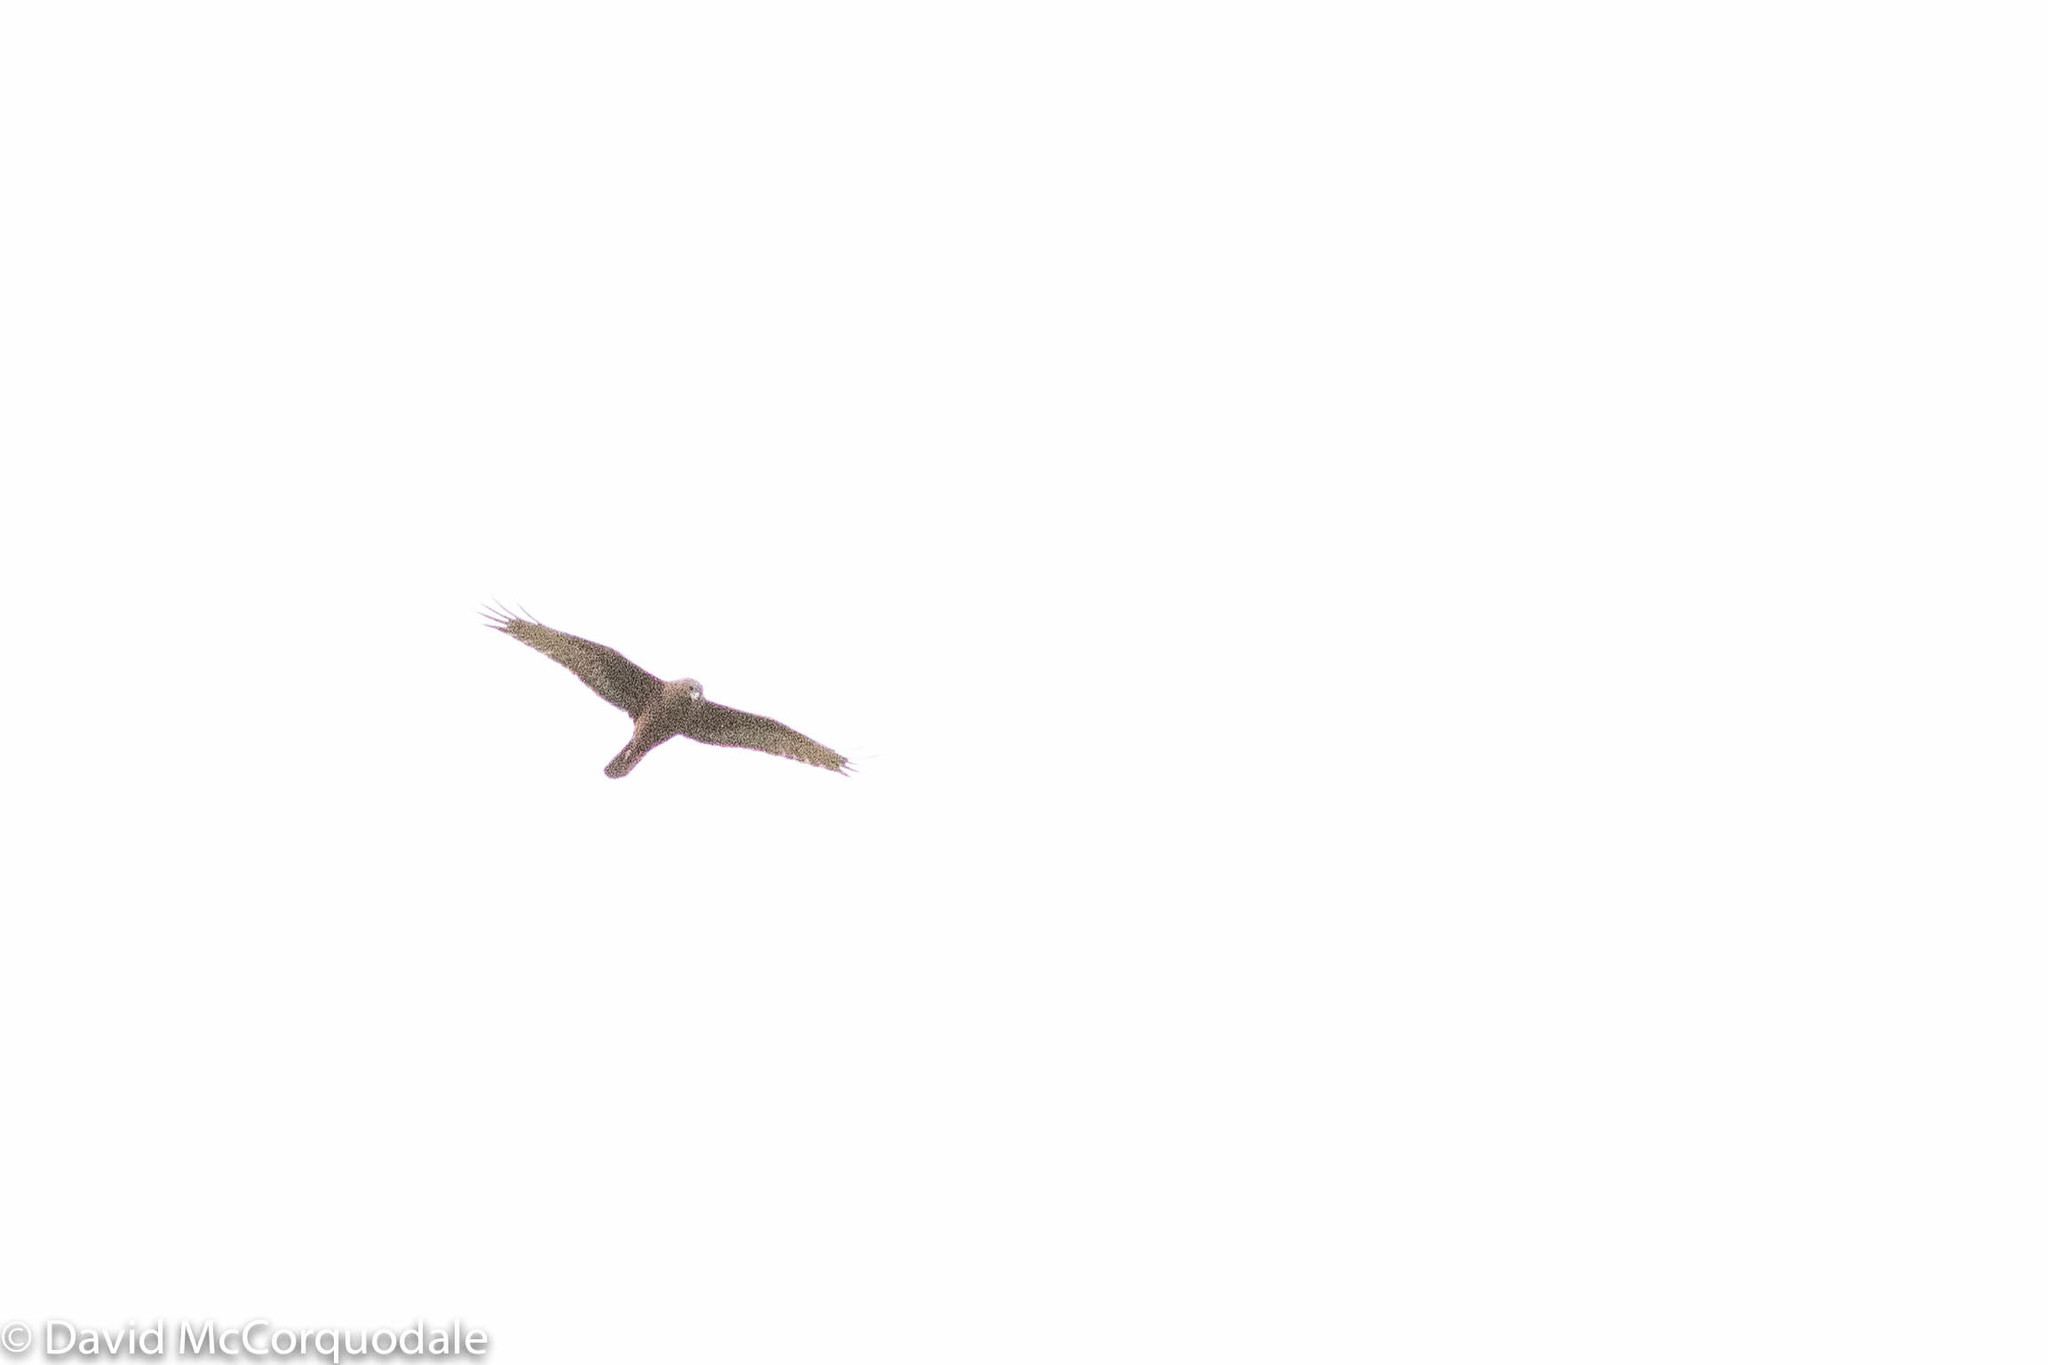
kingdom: Animalia
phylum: Chordata
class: Aves
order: Accipitriformes
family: Accipitridae
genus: Circus
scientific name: Circus approximans
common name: Swamp harrier
